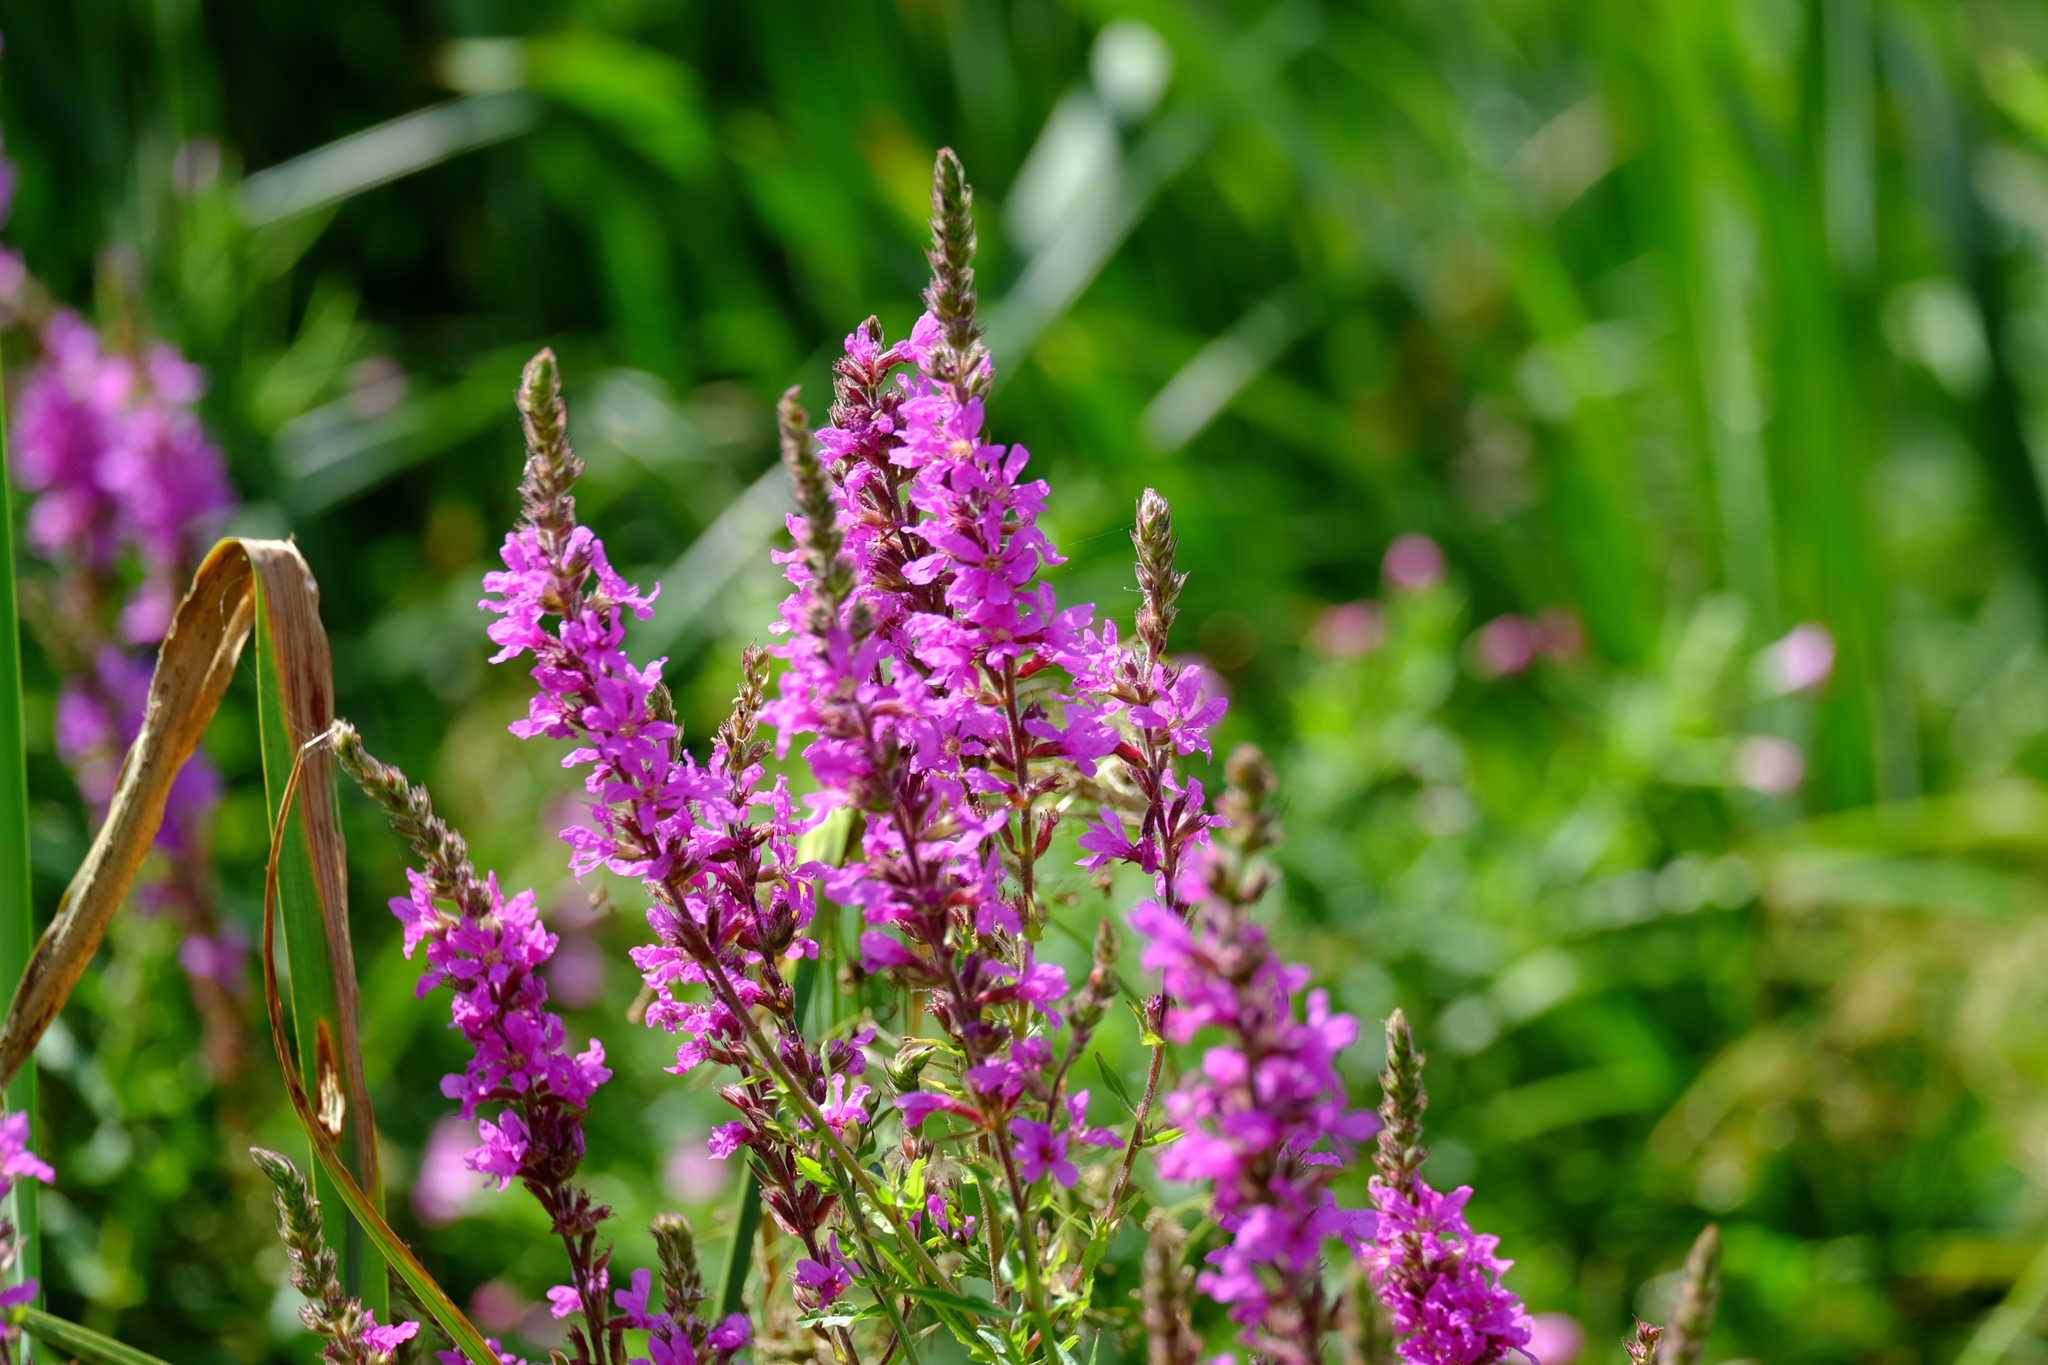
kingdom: Plantae
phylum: Tracheophyta
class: Magnoliopsida
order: Myrtales
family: Lythraceae
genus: Lythrum
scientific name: Lythrum salicaria
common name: Purple loosestrife
